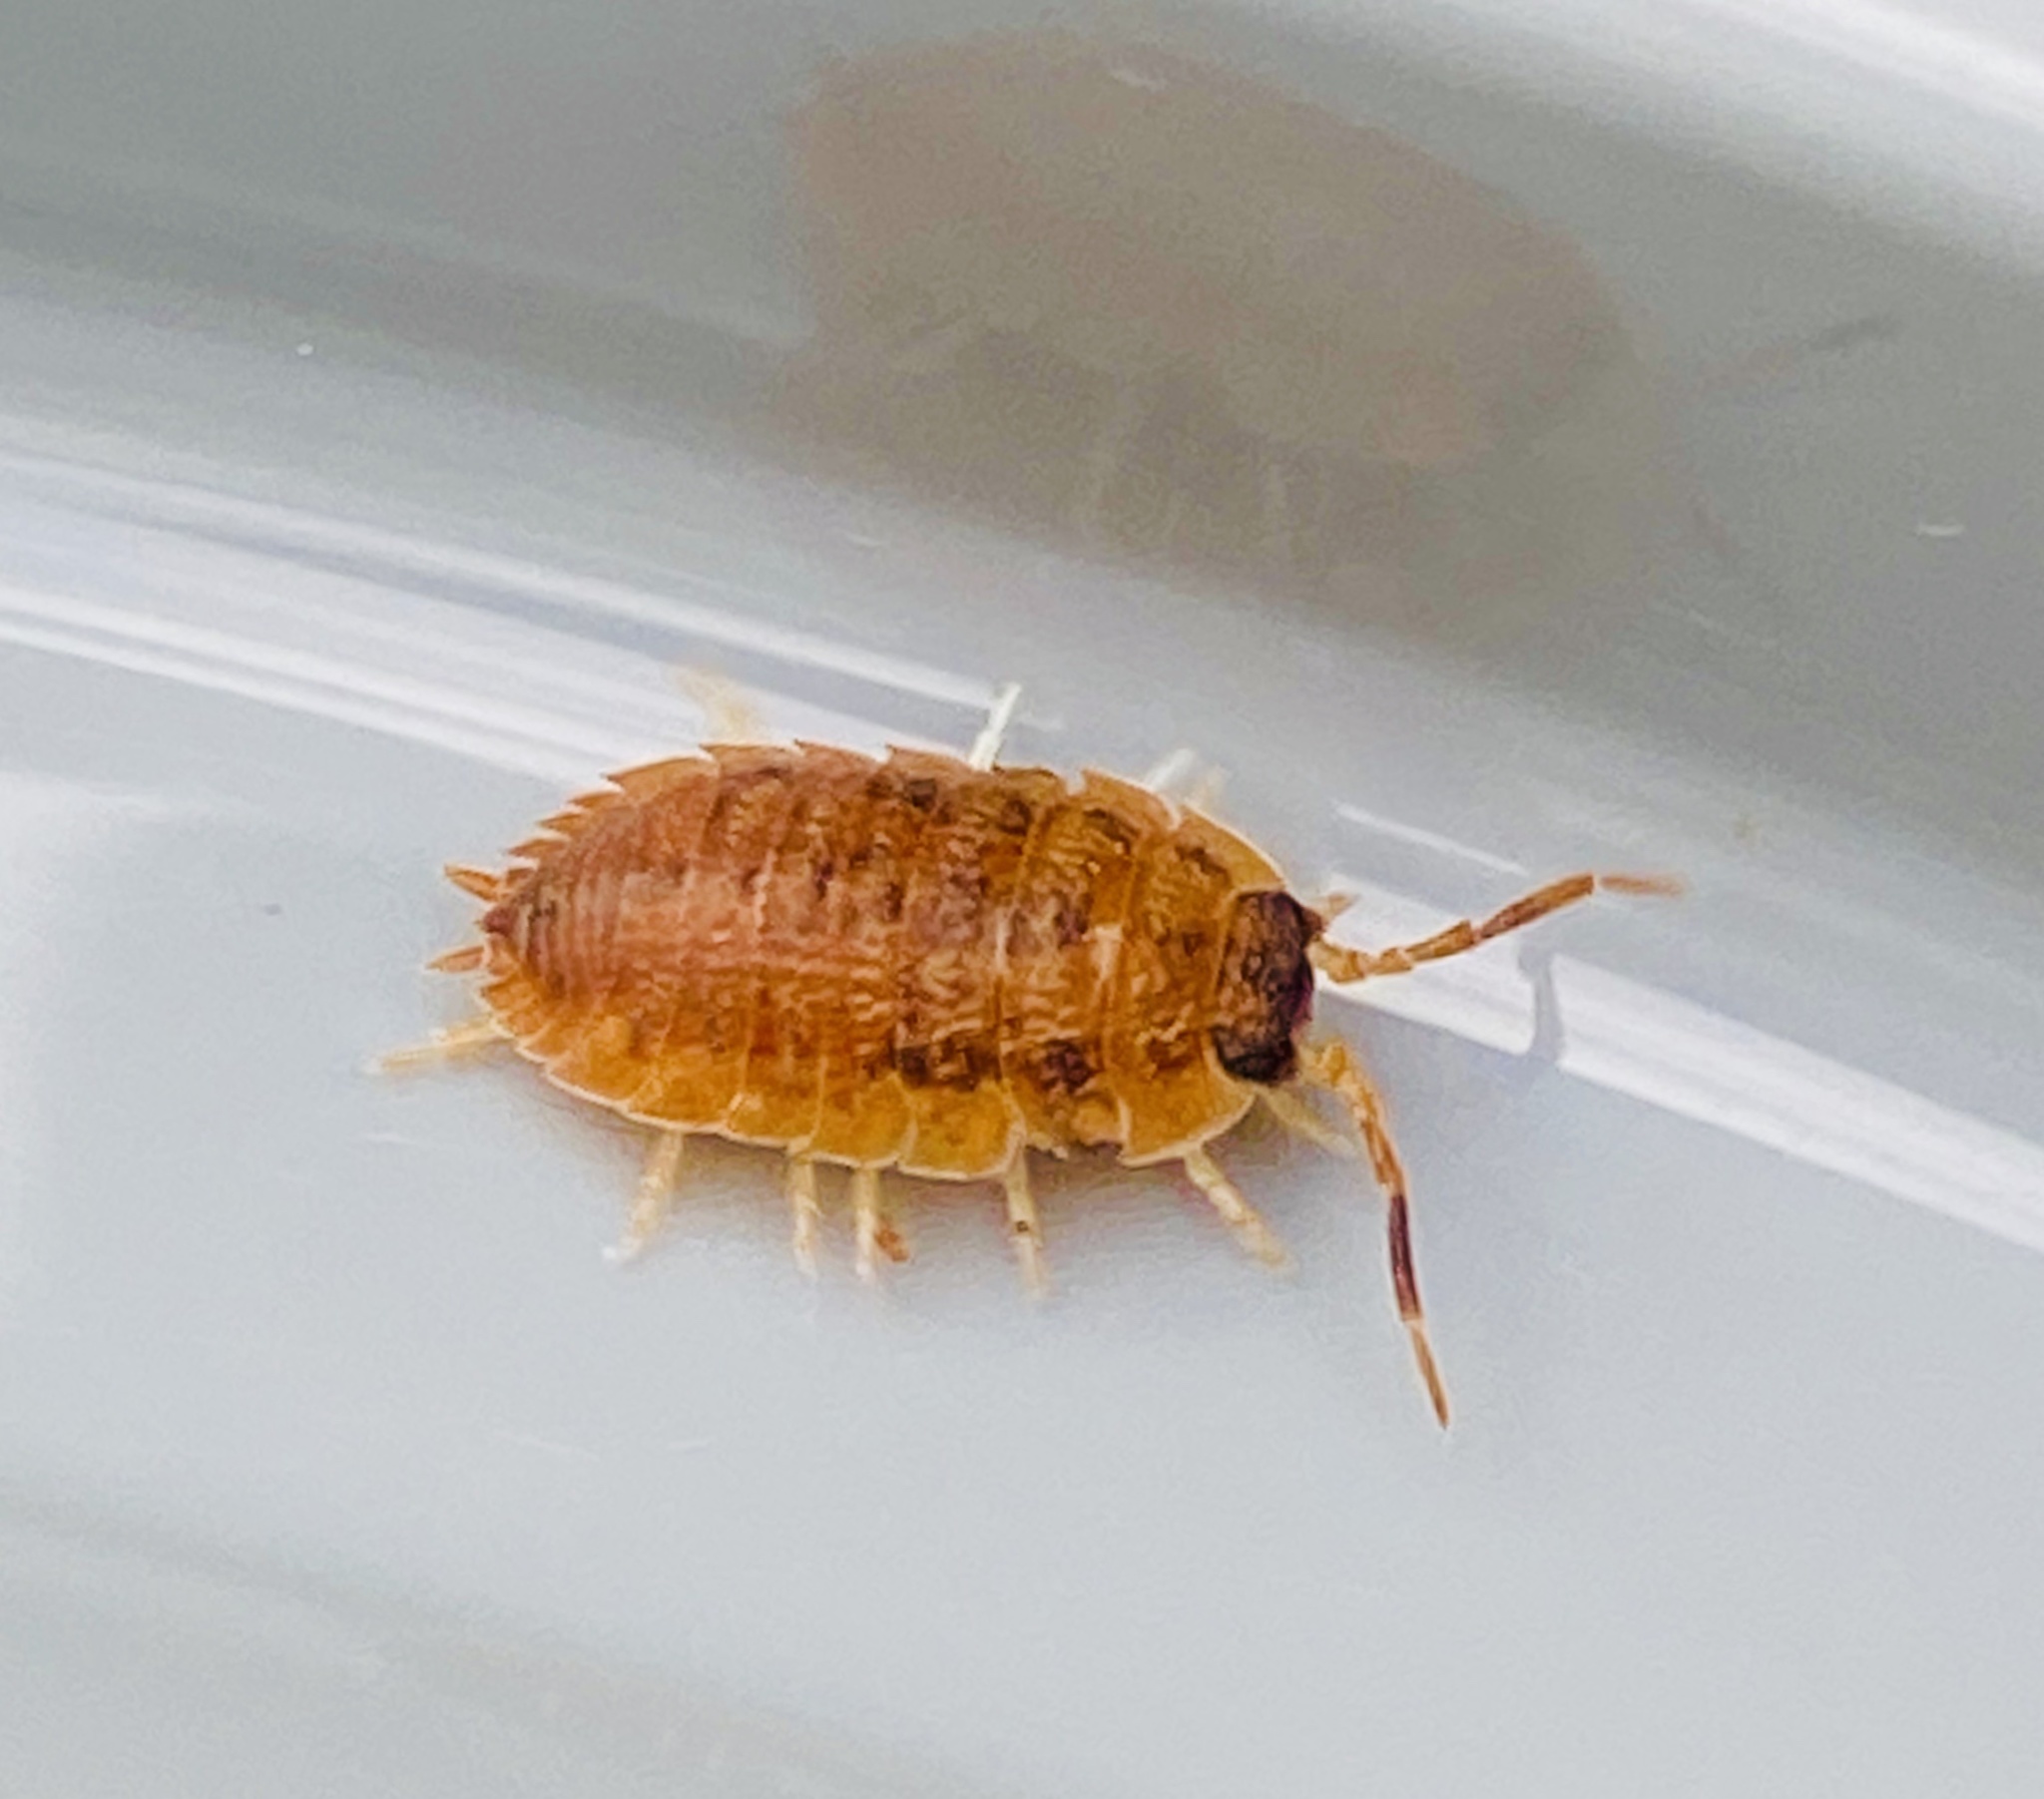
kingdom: Animalia
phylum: Arthropoda
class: Malacostraca
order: Isopoda
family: Porcellionidae
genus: Porcellio
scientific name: Porcellio scaber
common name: Common rough woodlouse
